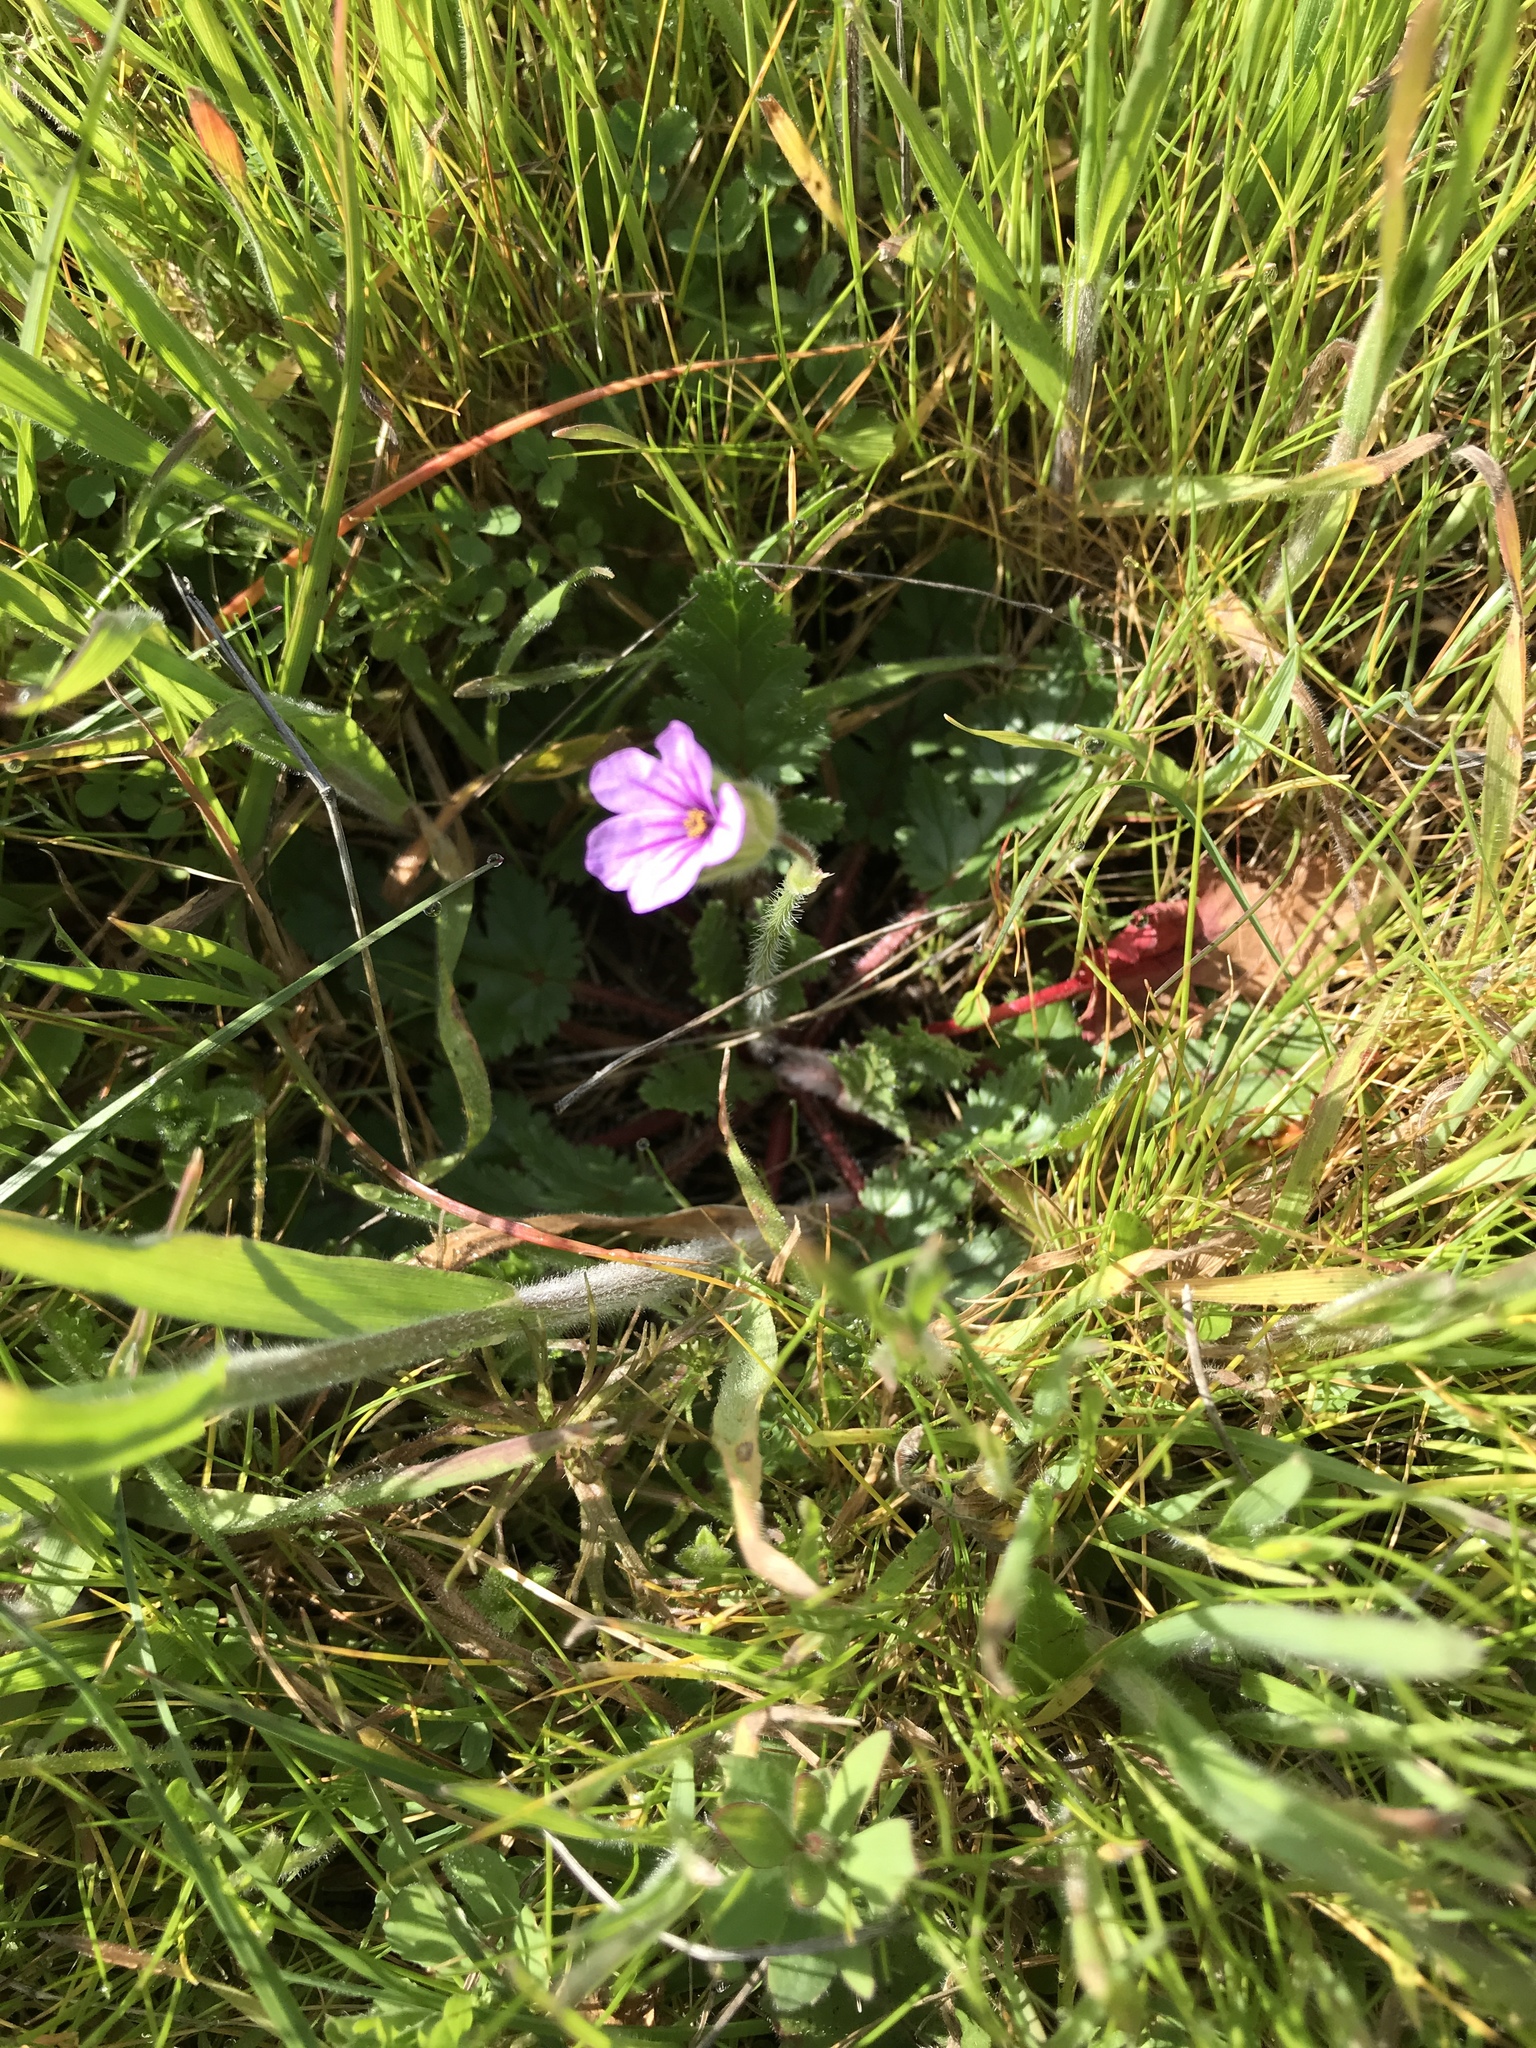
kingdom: Plantae
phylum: Tracheophyta
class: Magnoliopsida
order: Geraniales
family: Geraniaceae
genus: Erodium
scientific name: Erodium botrys
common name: Mediterranean stork's-bill
